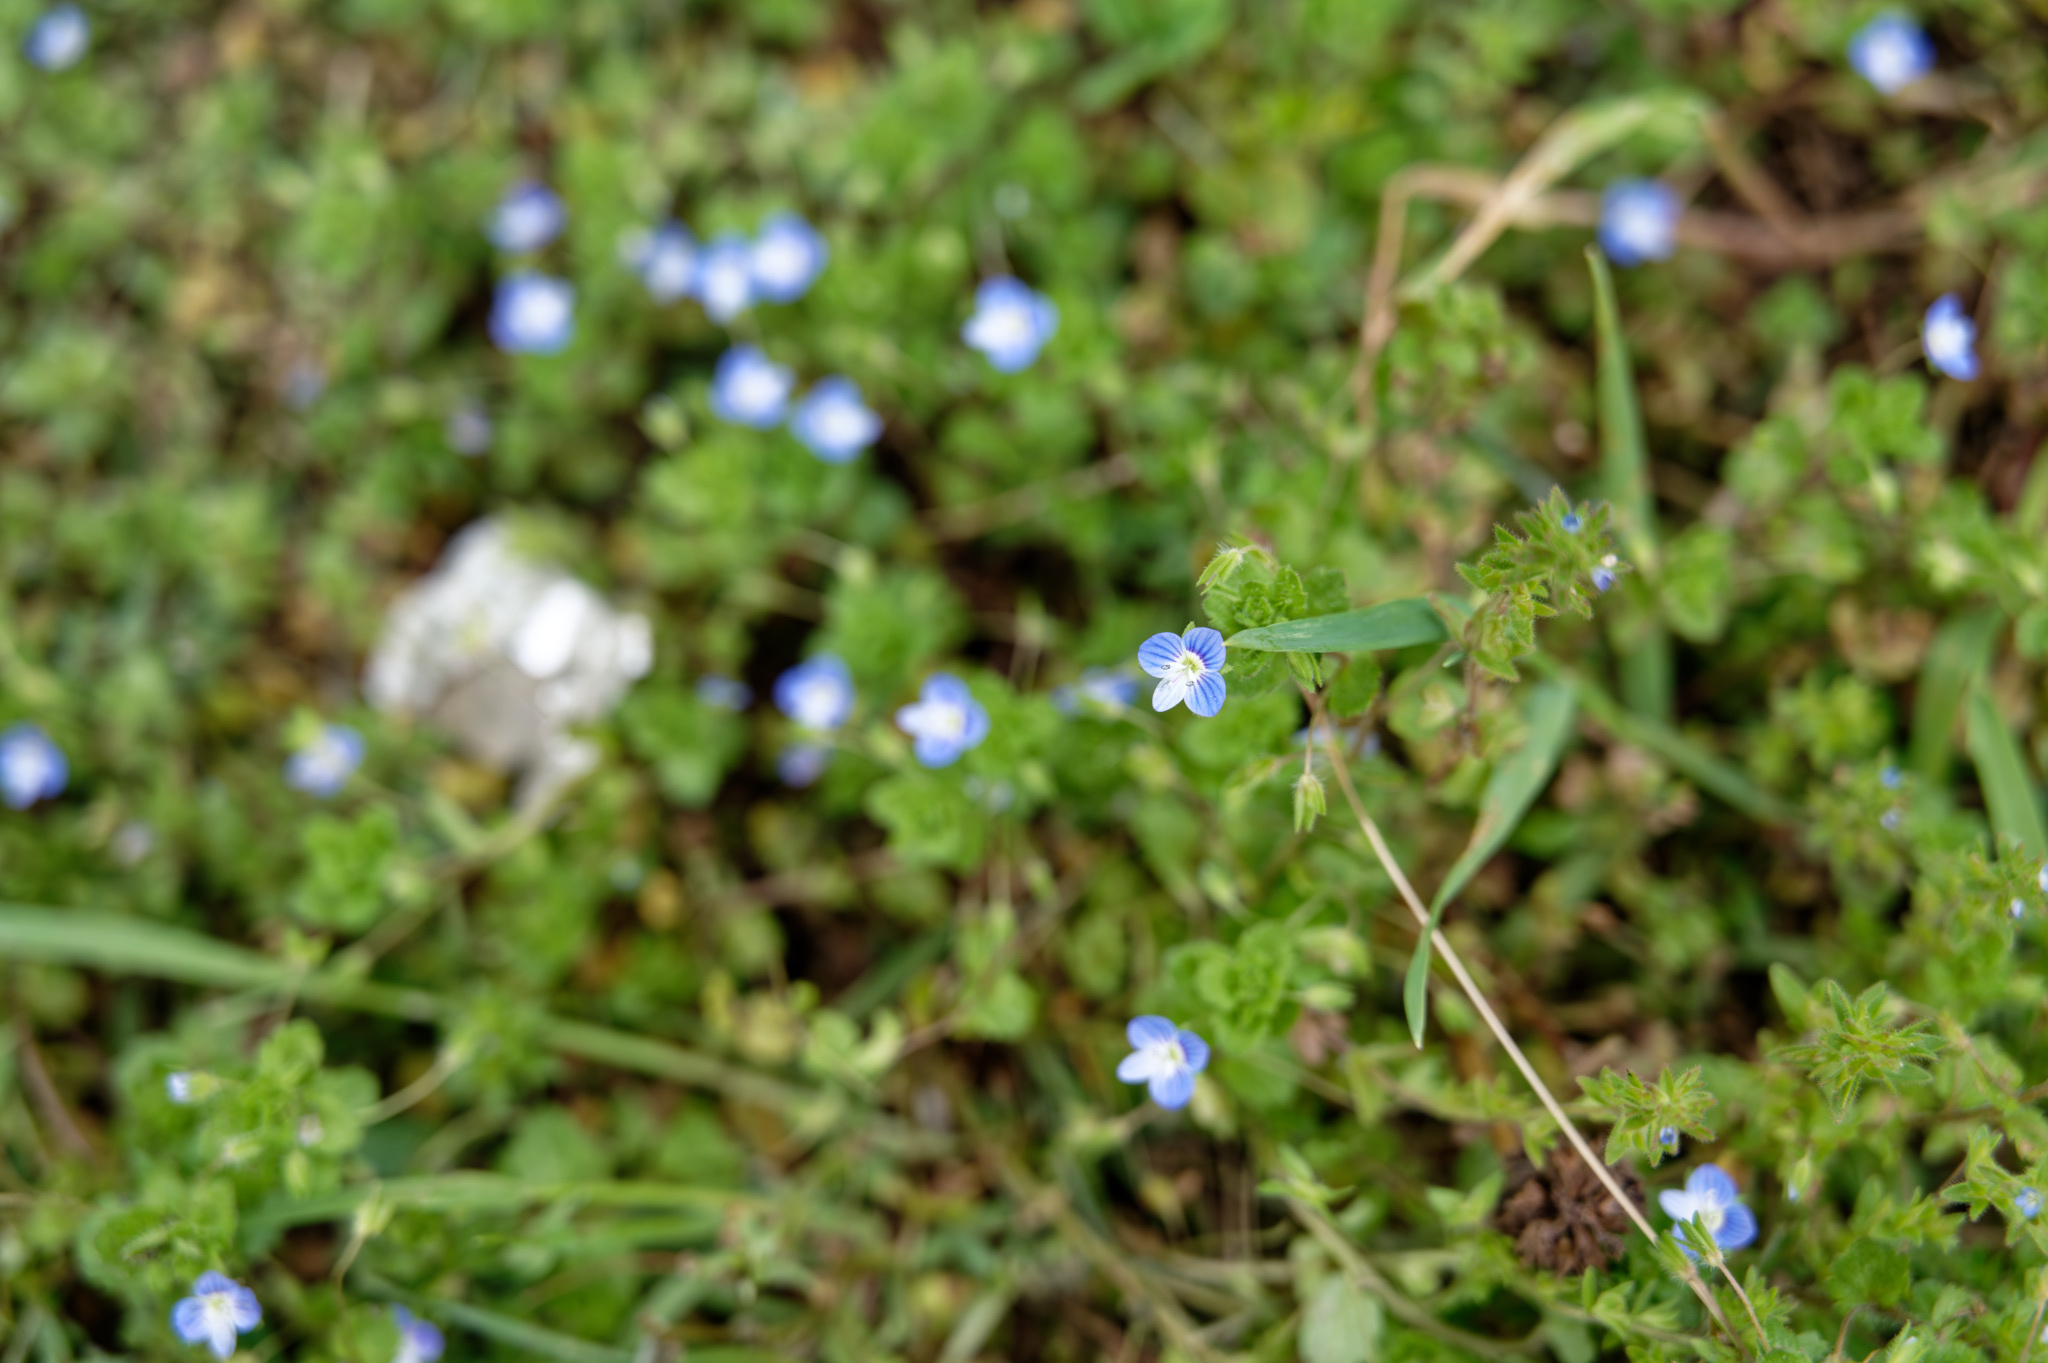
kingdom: Plantae
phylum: Tracheophyta
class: Magnoliopsida
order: Lamiales
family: Plantaginaceae
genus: Veronica
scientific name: Veronica persica
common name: Common field-speedwell
